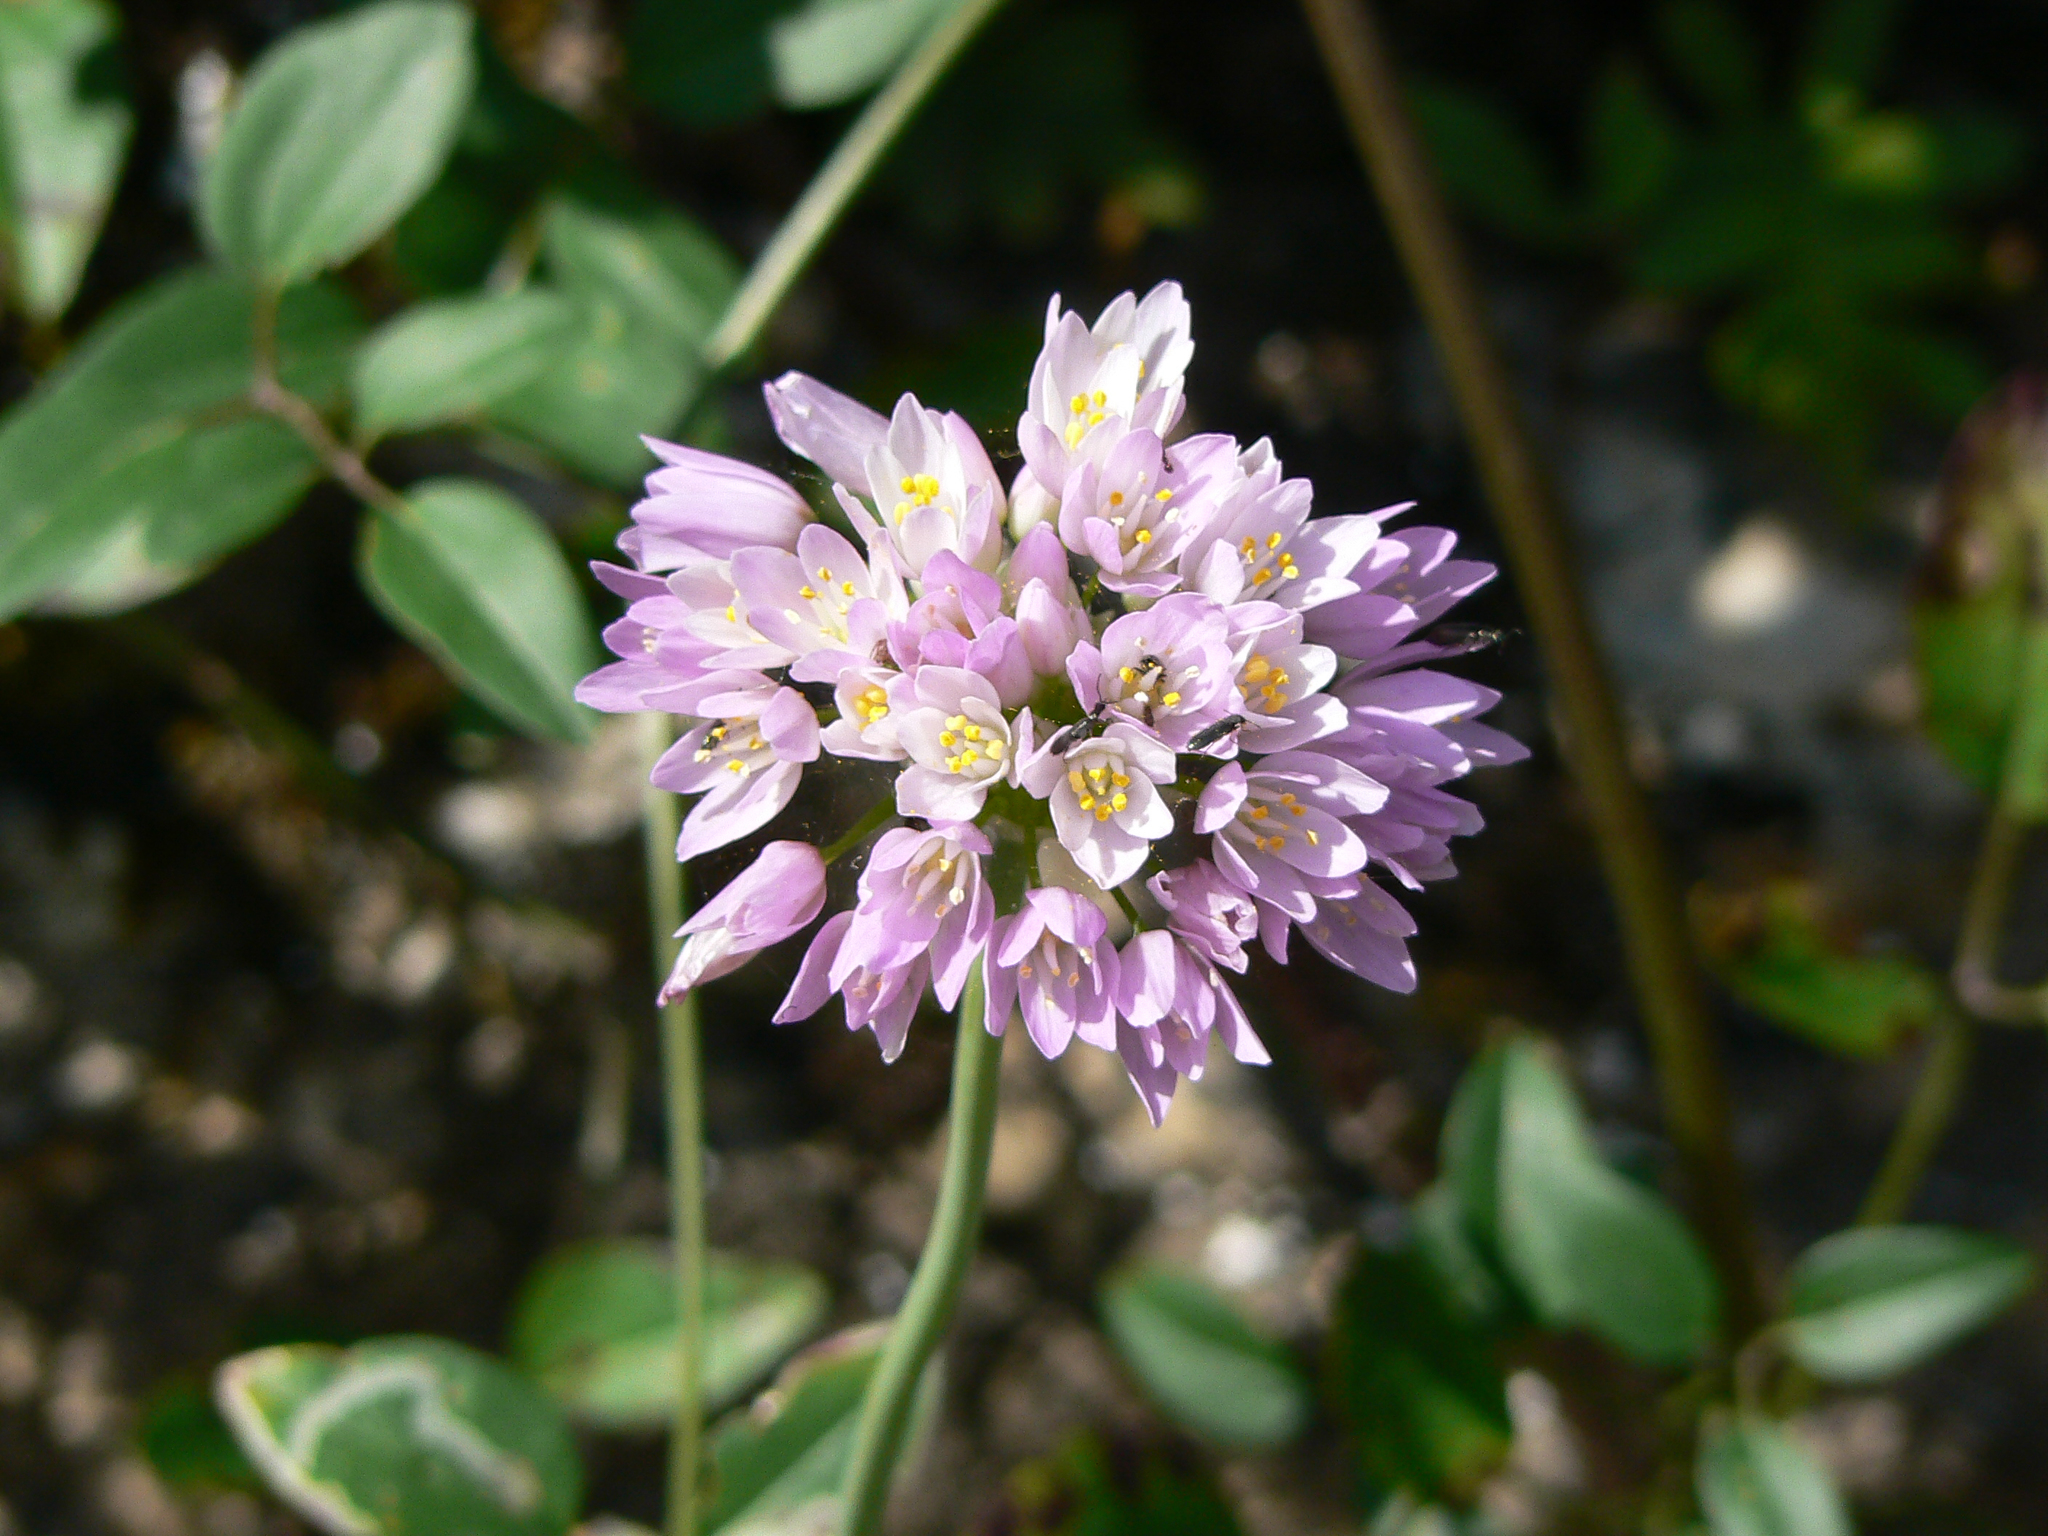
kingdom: Plantae
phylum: Tracheophyta
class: Liliopsida
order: Asparagales
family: Amaryllidaceae
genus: Allium
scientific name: Allium roseum
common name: Rosy garlic
